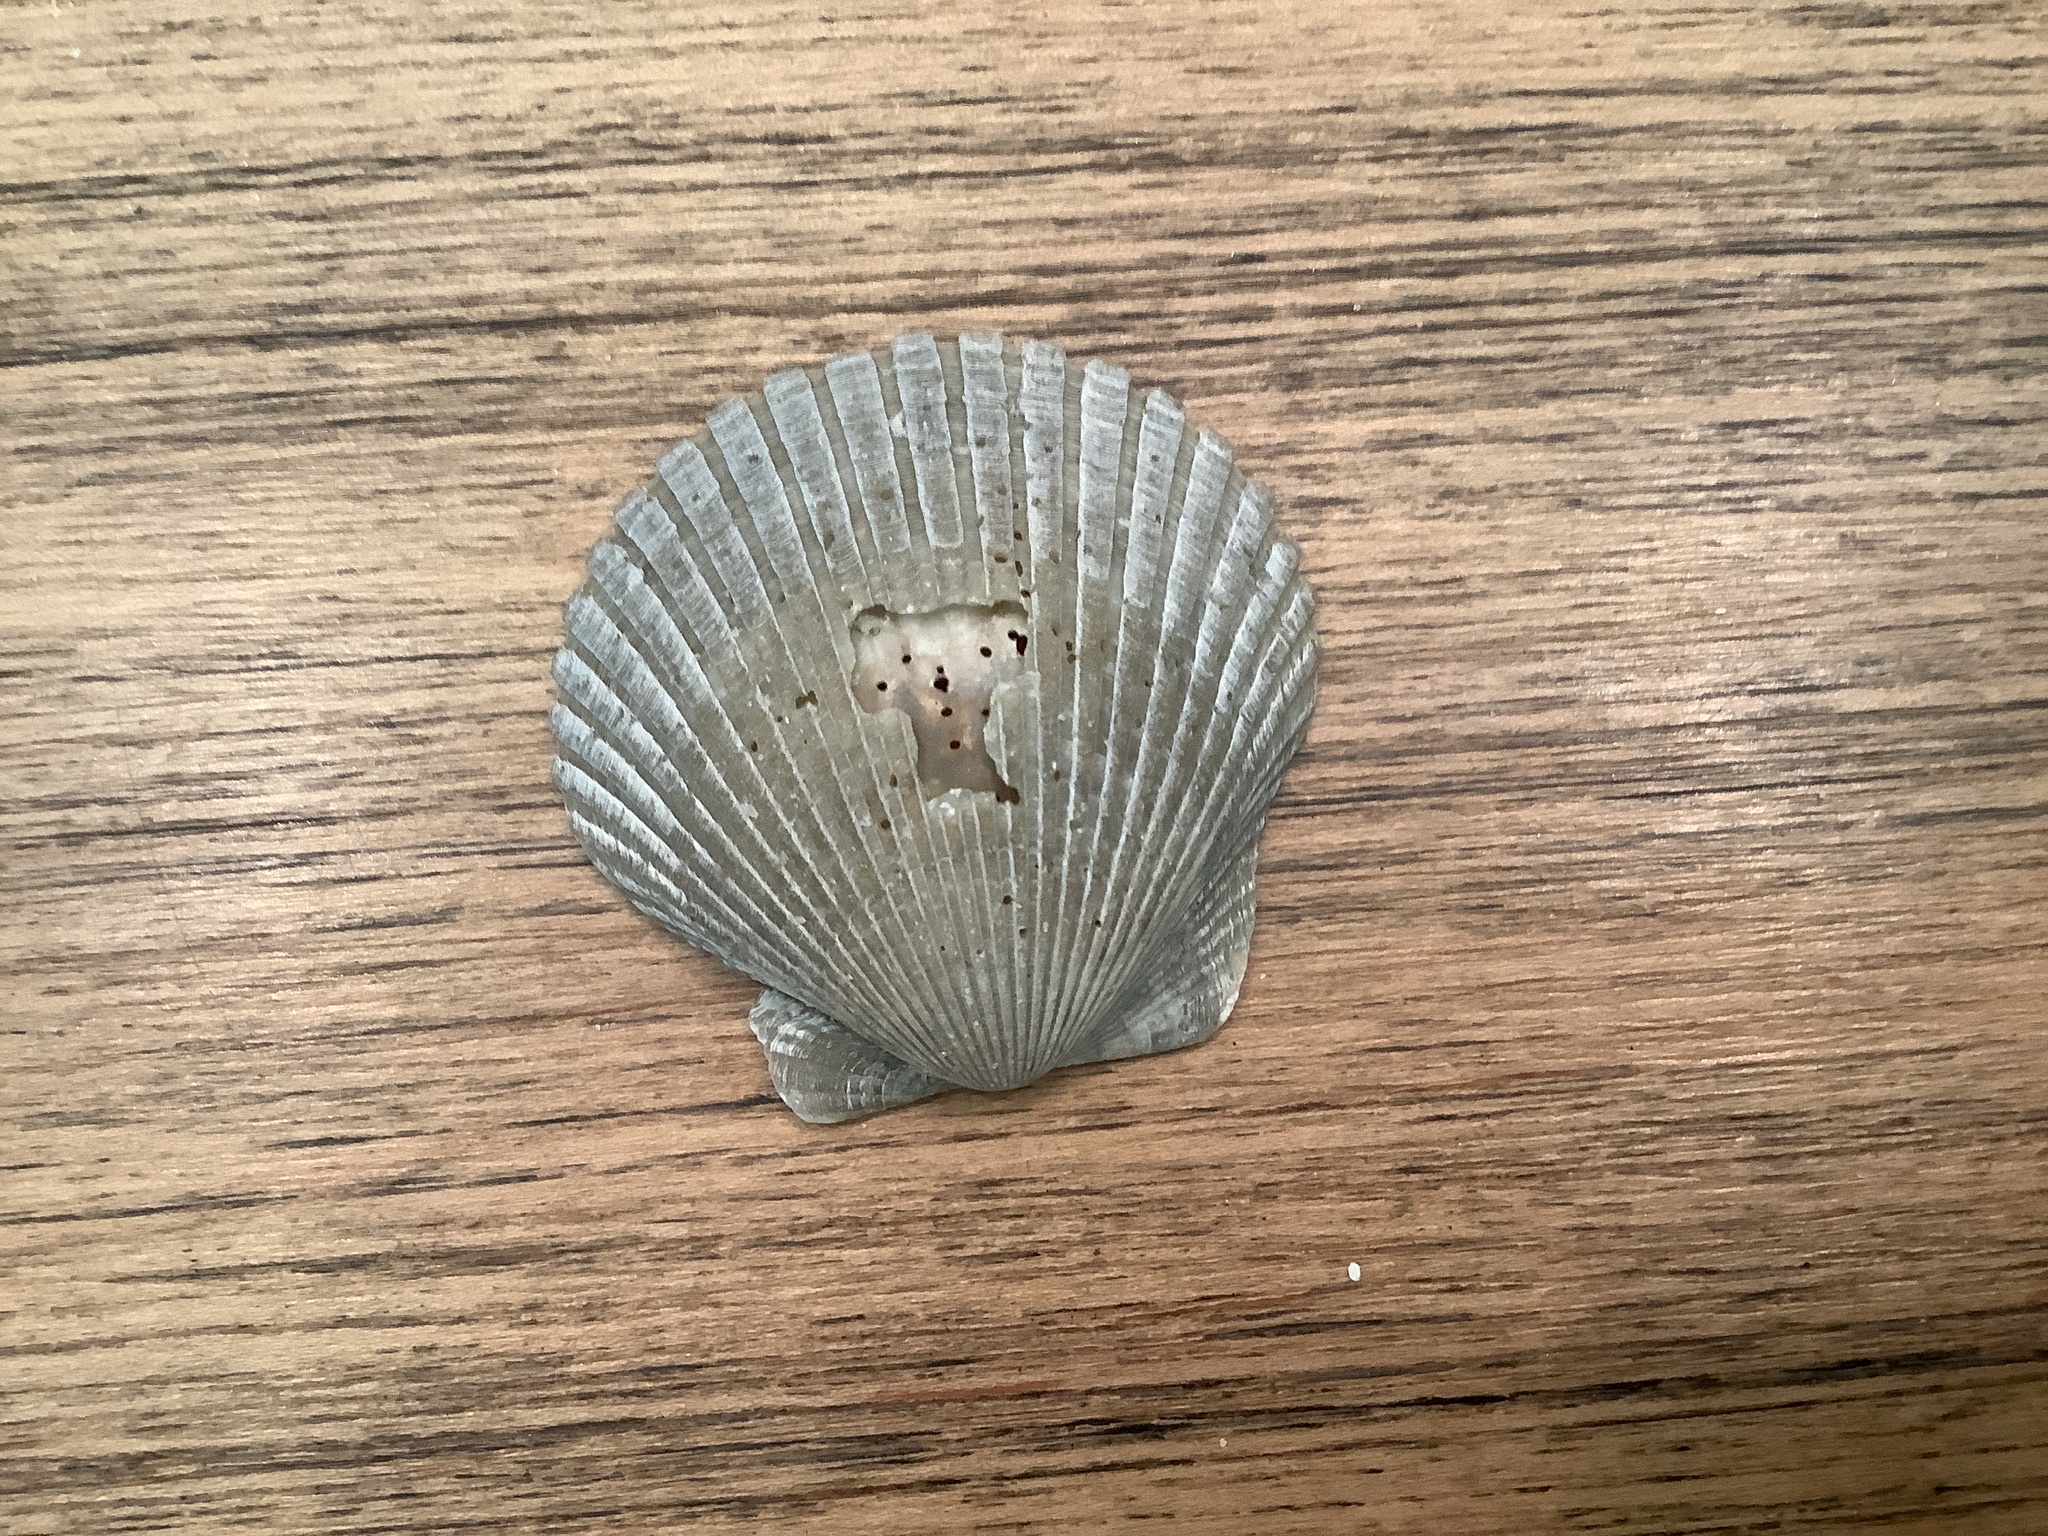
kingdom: Animalia
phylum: Mollusca
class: Bivalvia
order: Pectinida
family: Pectinidae
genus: Argopecten
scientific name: Argopecten irradians
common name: Atlantic bay scallop
